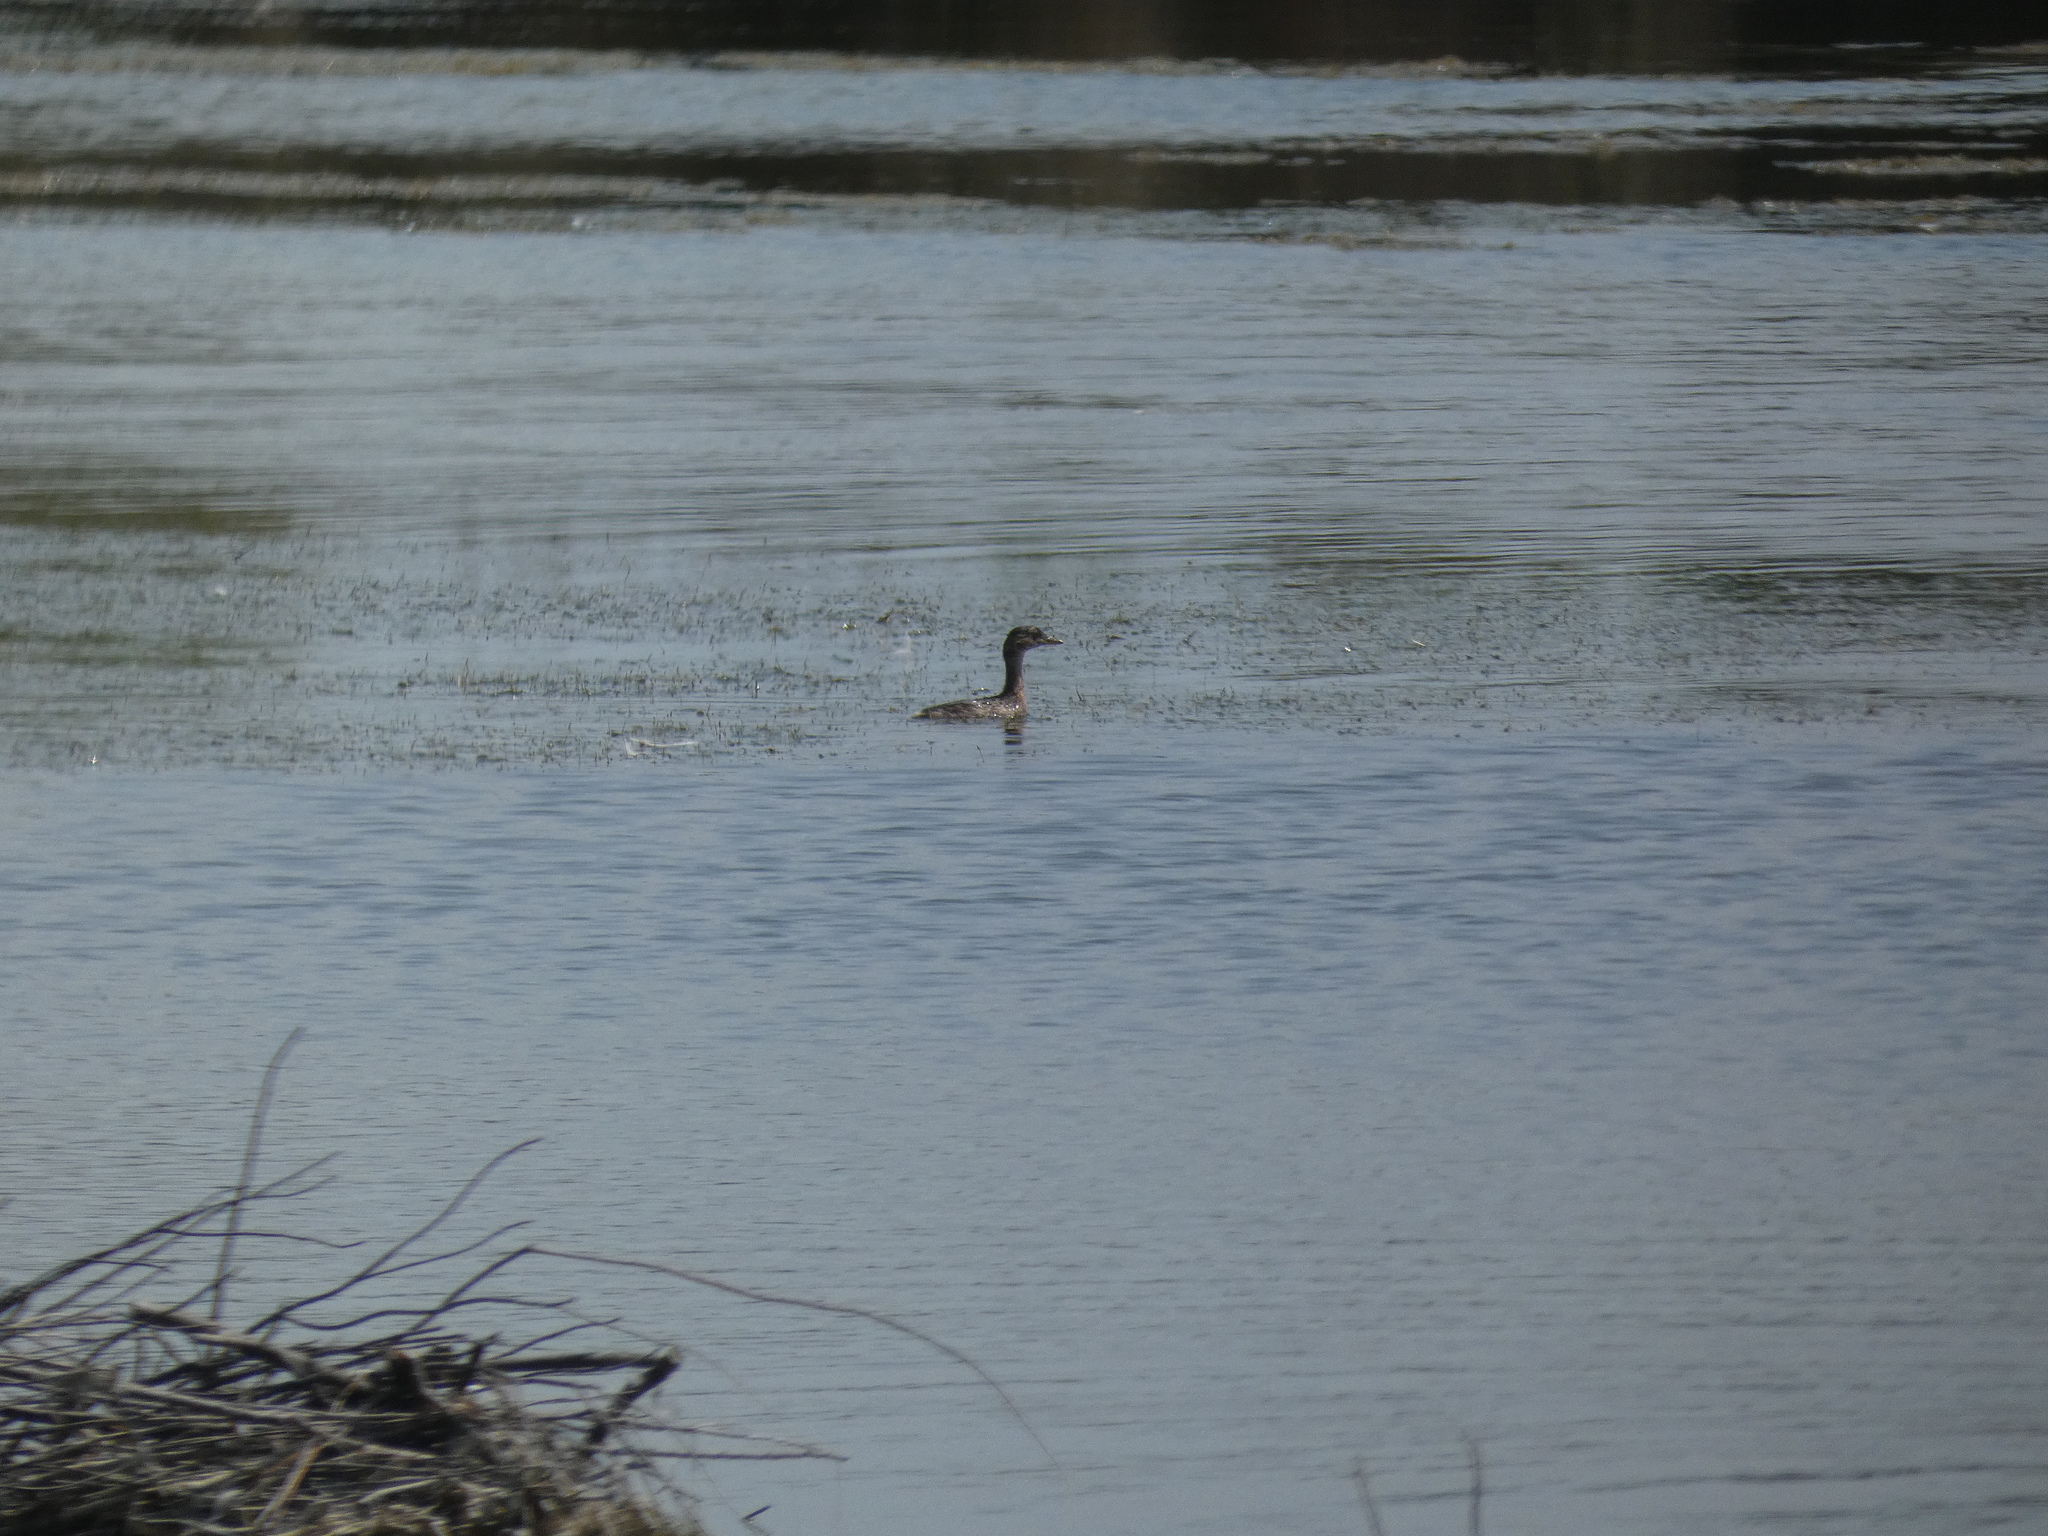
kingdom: Animalia
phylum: Chordata
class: Aves
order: Podicipediformes
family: Podicipedidae
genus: Tachybaptus
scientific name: Tachybaptus ruficollis
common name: Little grebe
